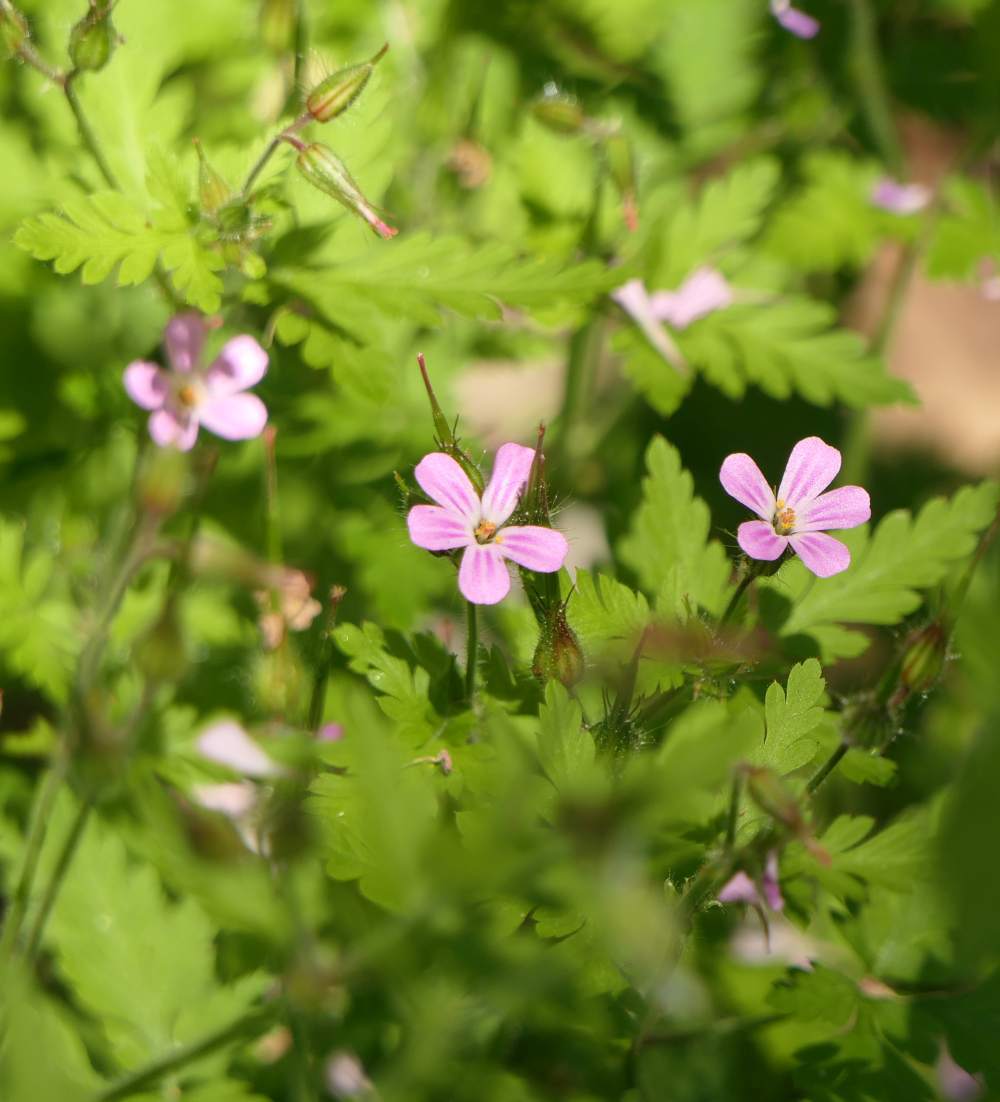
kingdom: Plantae
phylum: Tracheophyta
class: Magnoliopsida
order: Geraniales
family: Geraniaceae
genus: Geranium
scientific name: Geranium robertianum
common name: Herb-robert
